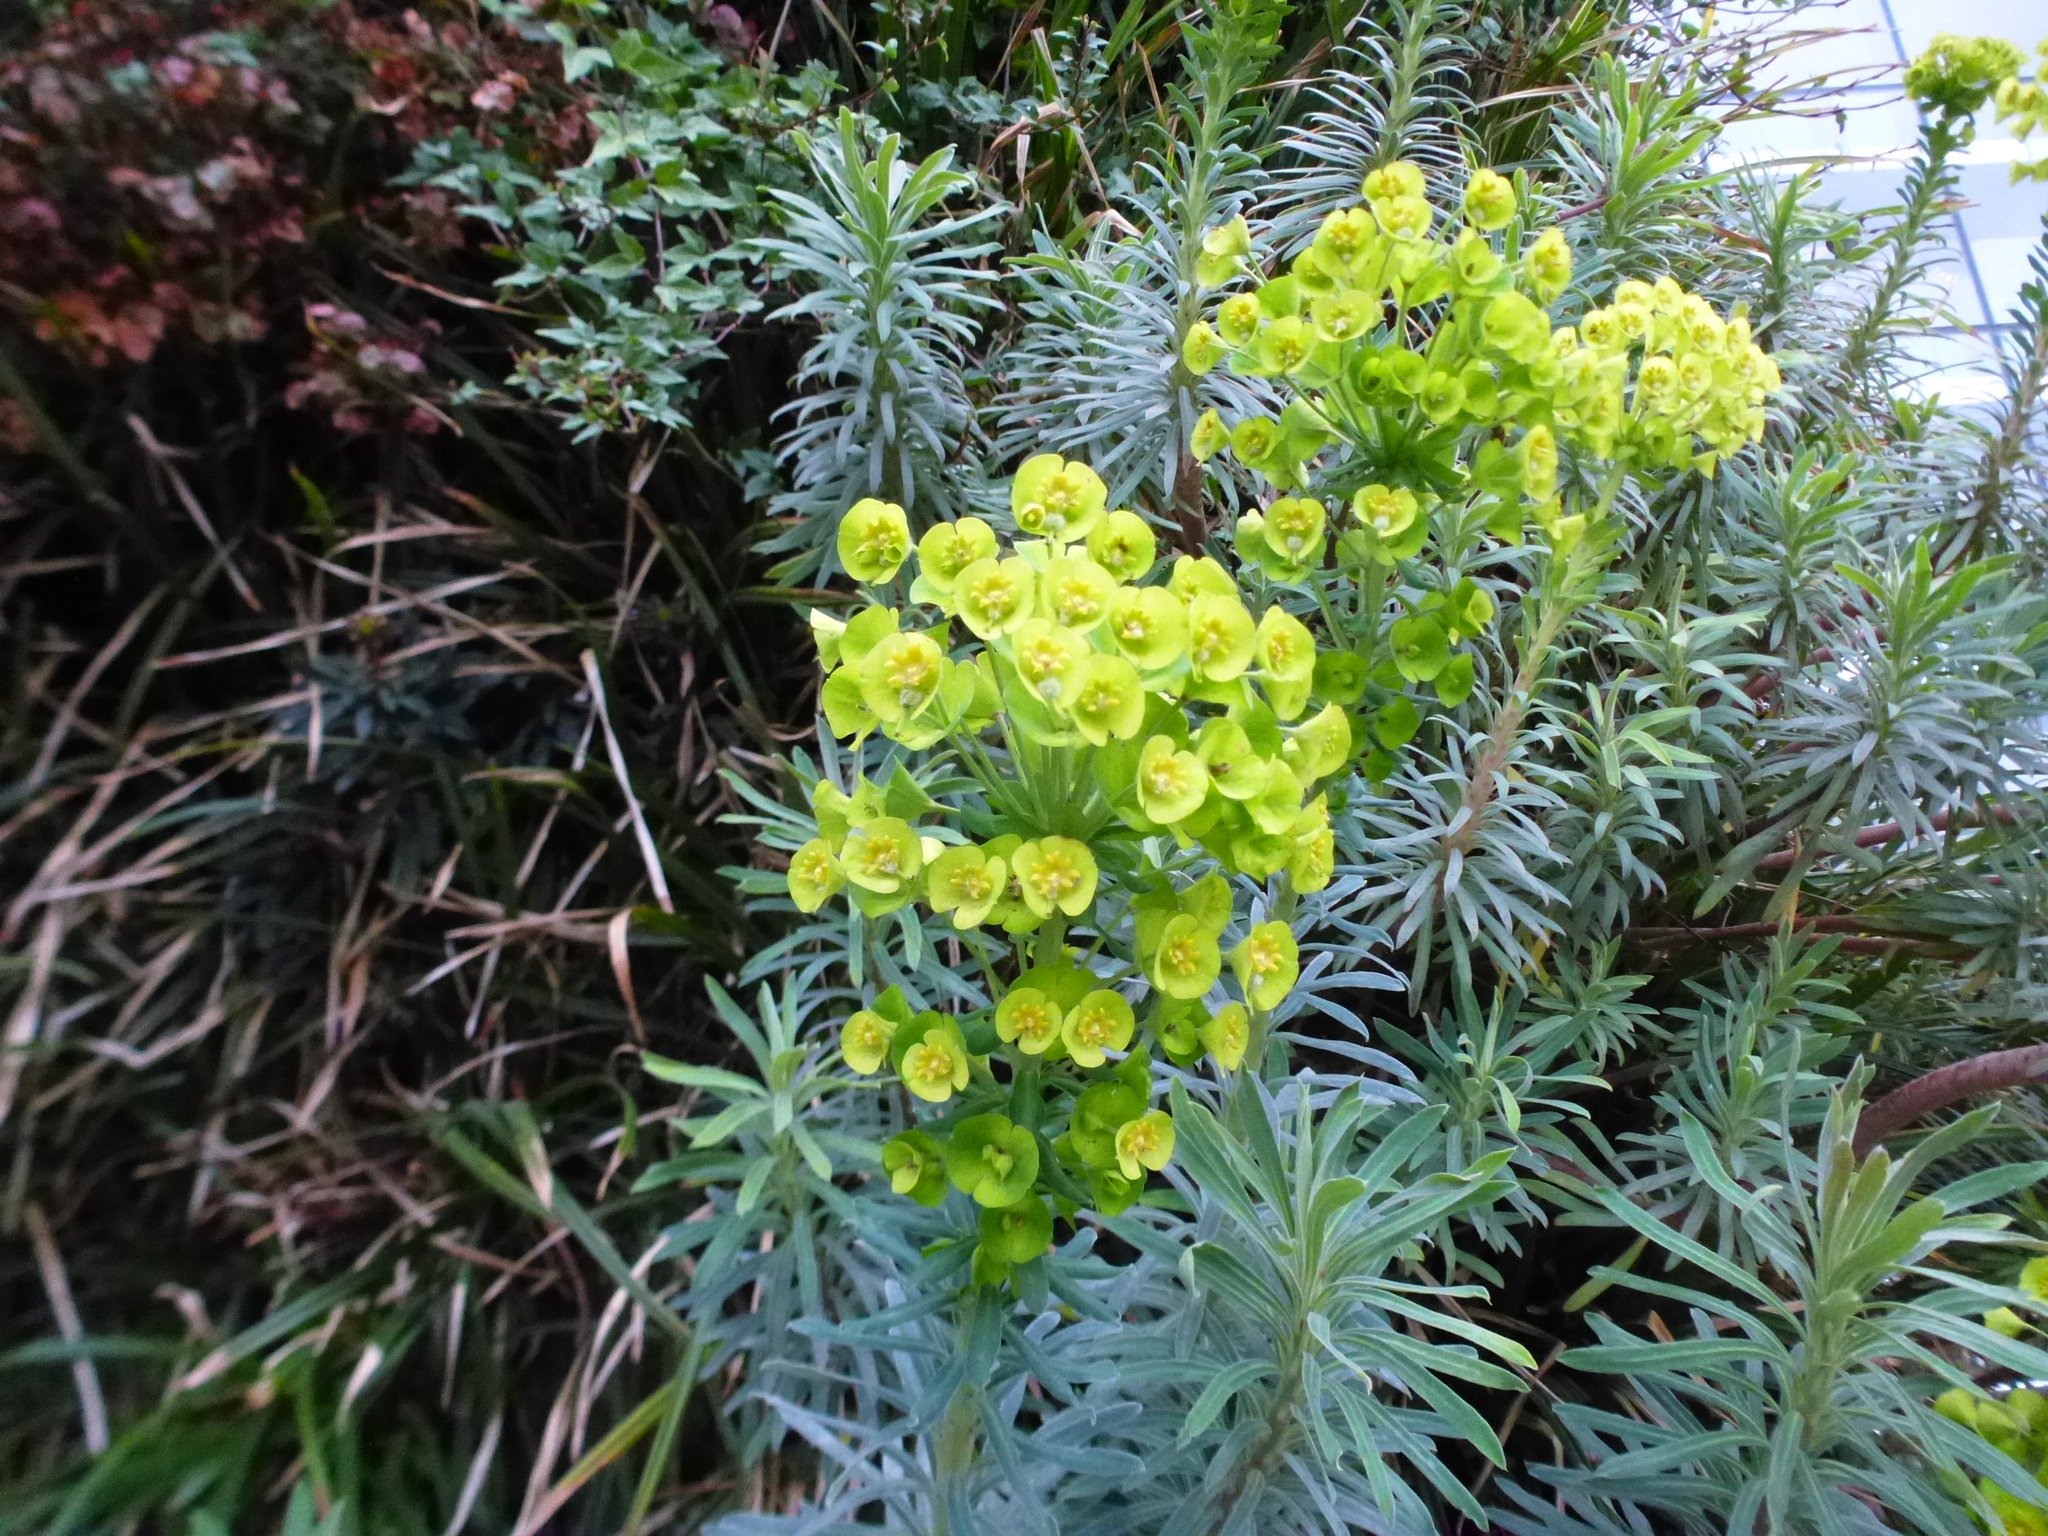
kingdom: Plantae
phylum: Tracheophyta
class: Magnoliopsida
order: Malpighiales
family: Euphorbiaceae
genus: Euphorbia
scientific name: Euphorbia characias
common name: Mediterranean spurge
